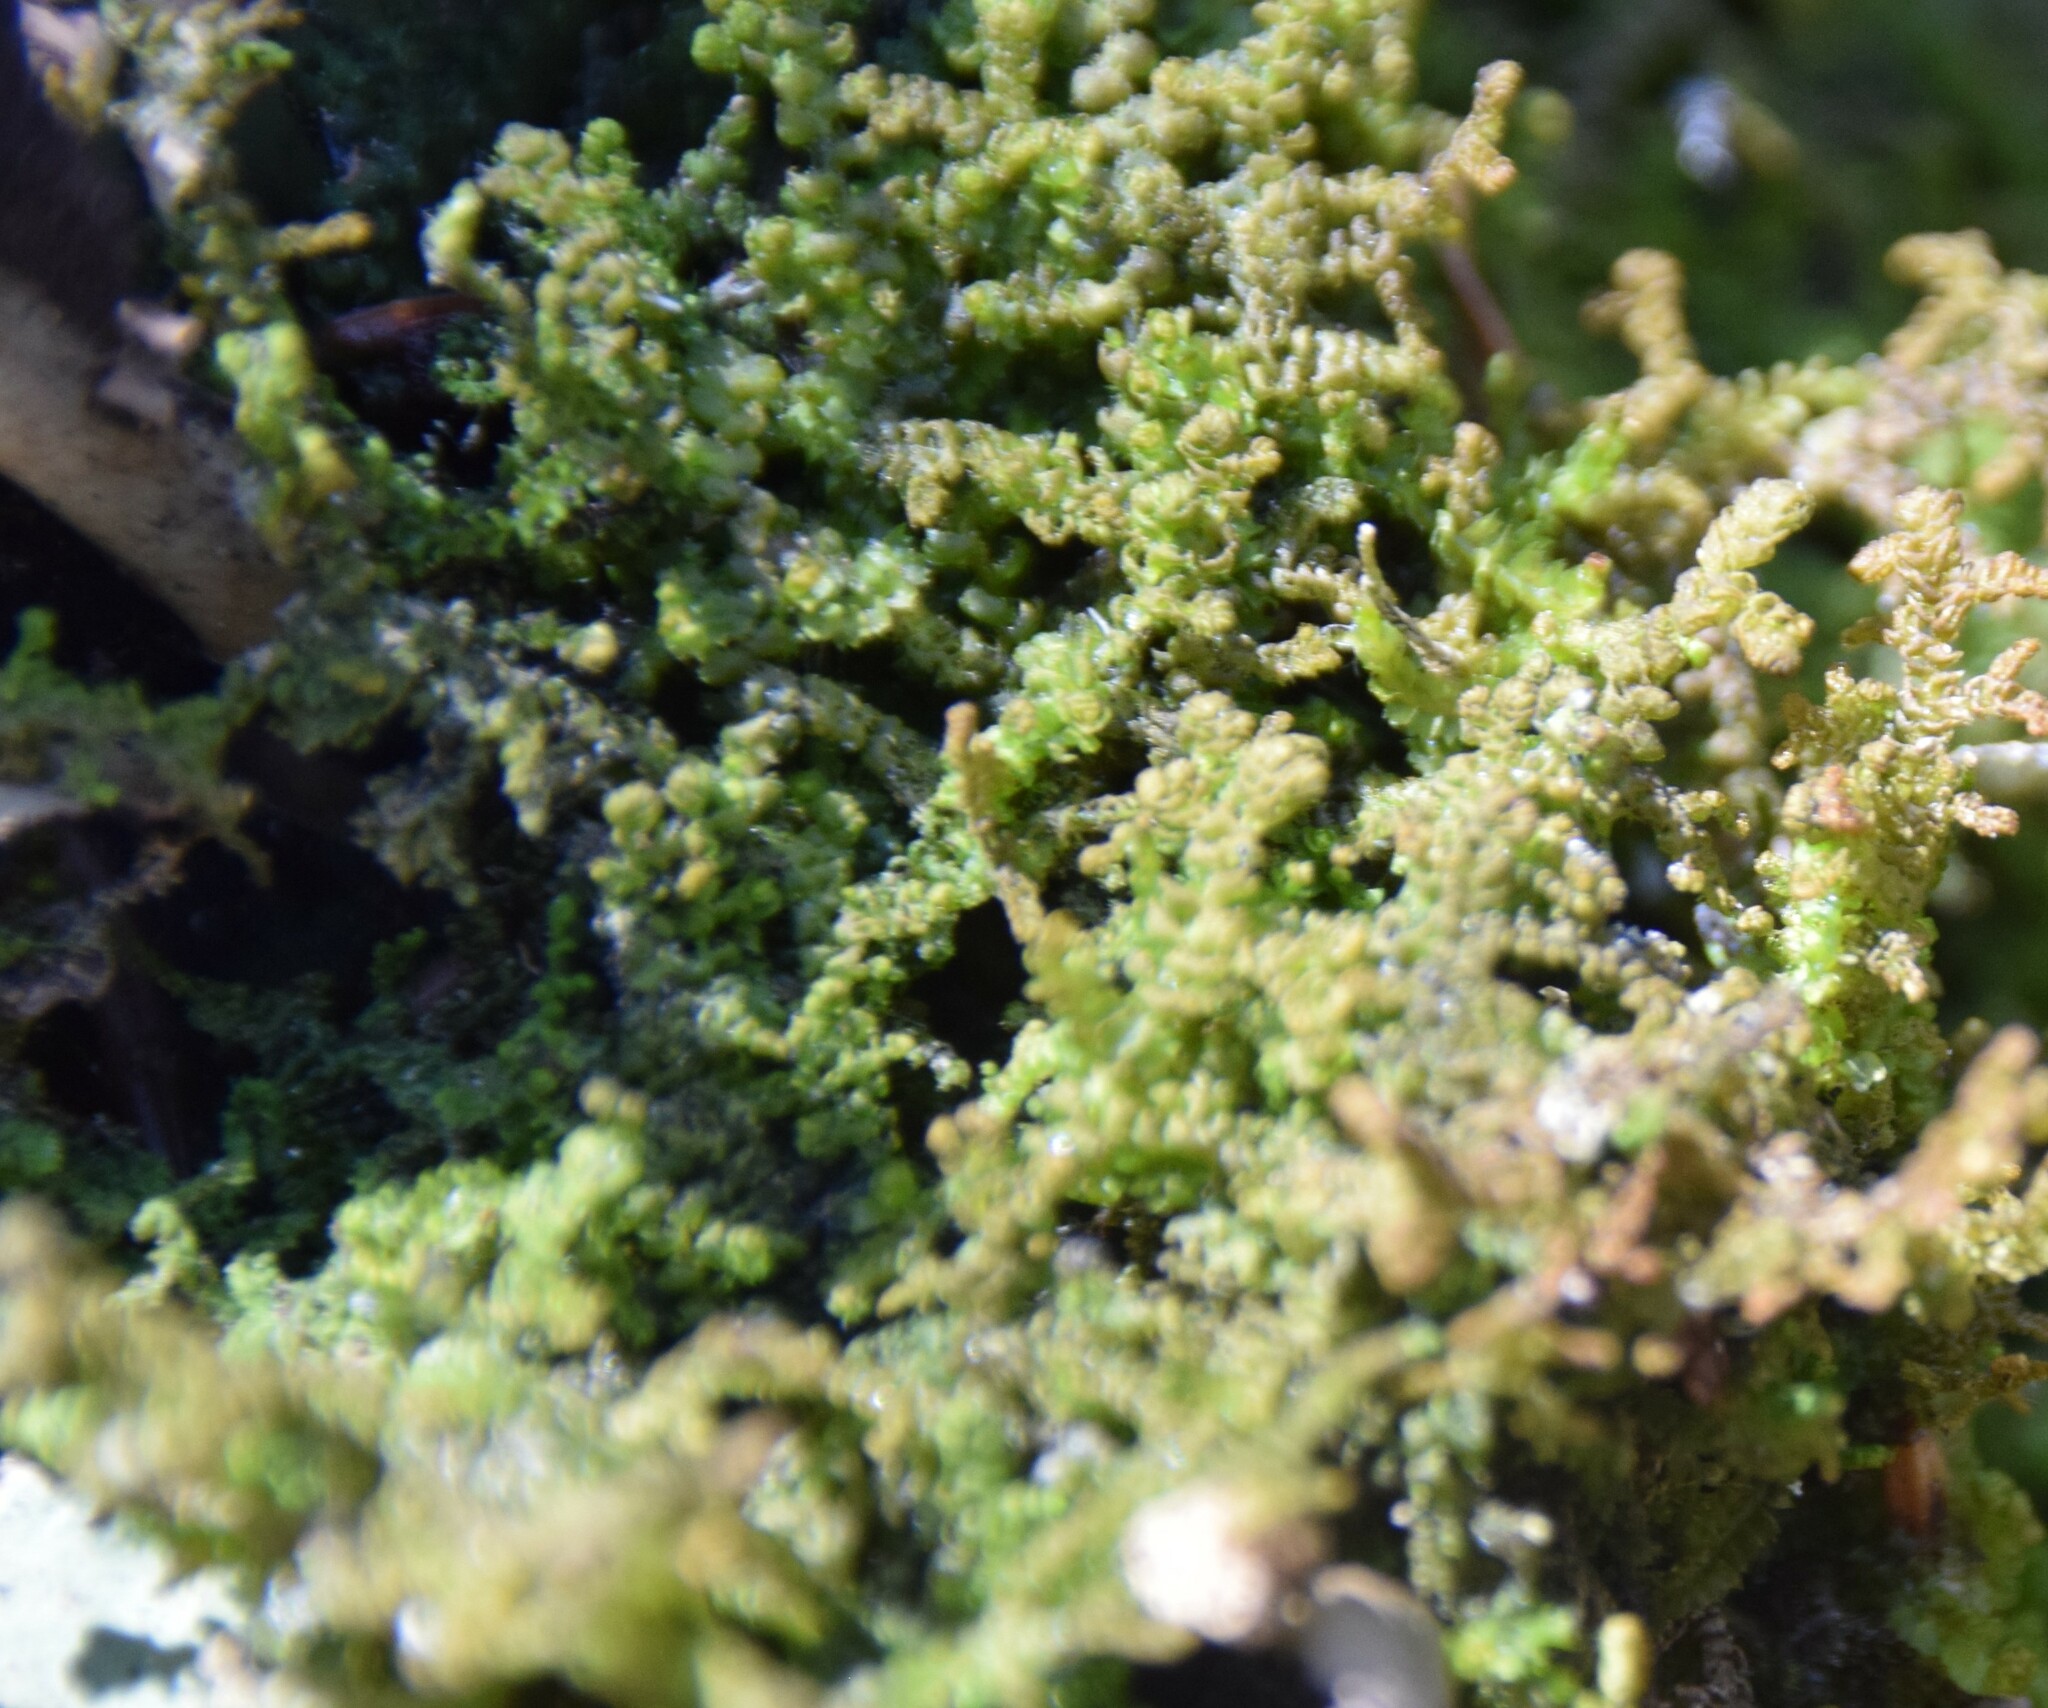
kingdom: Plantae
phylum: Marchantiophyta
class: Jungermanniopsida
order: Ptilidiales
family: Ptilidiaceae
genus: Ptilidium
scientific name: Ptilidium ciliare
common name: Ciliate fringewort
